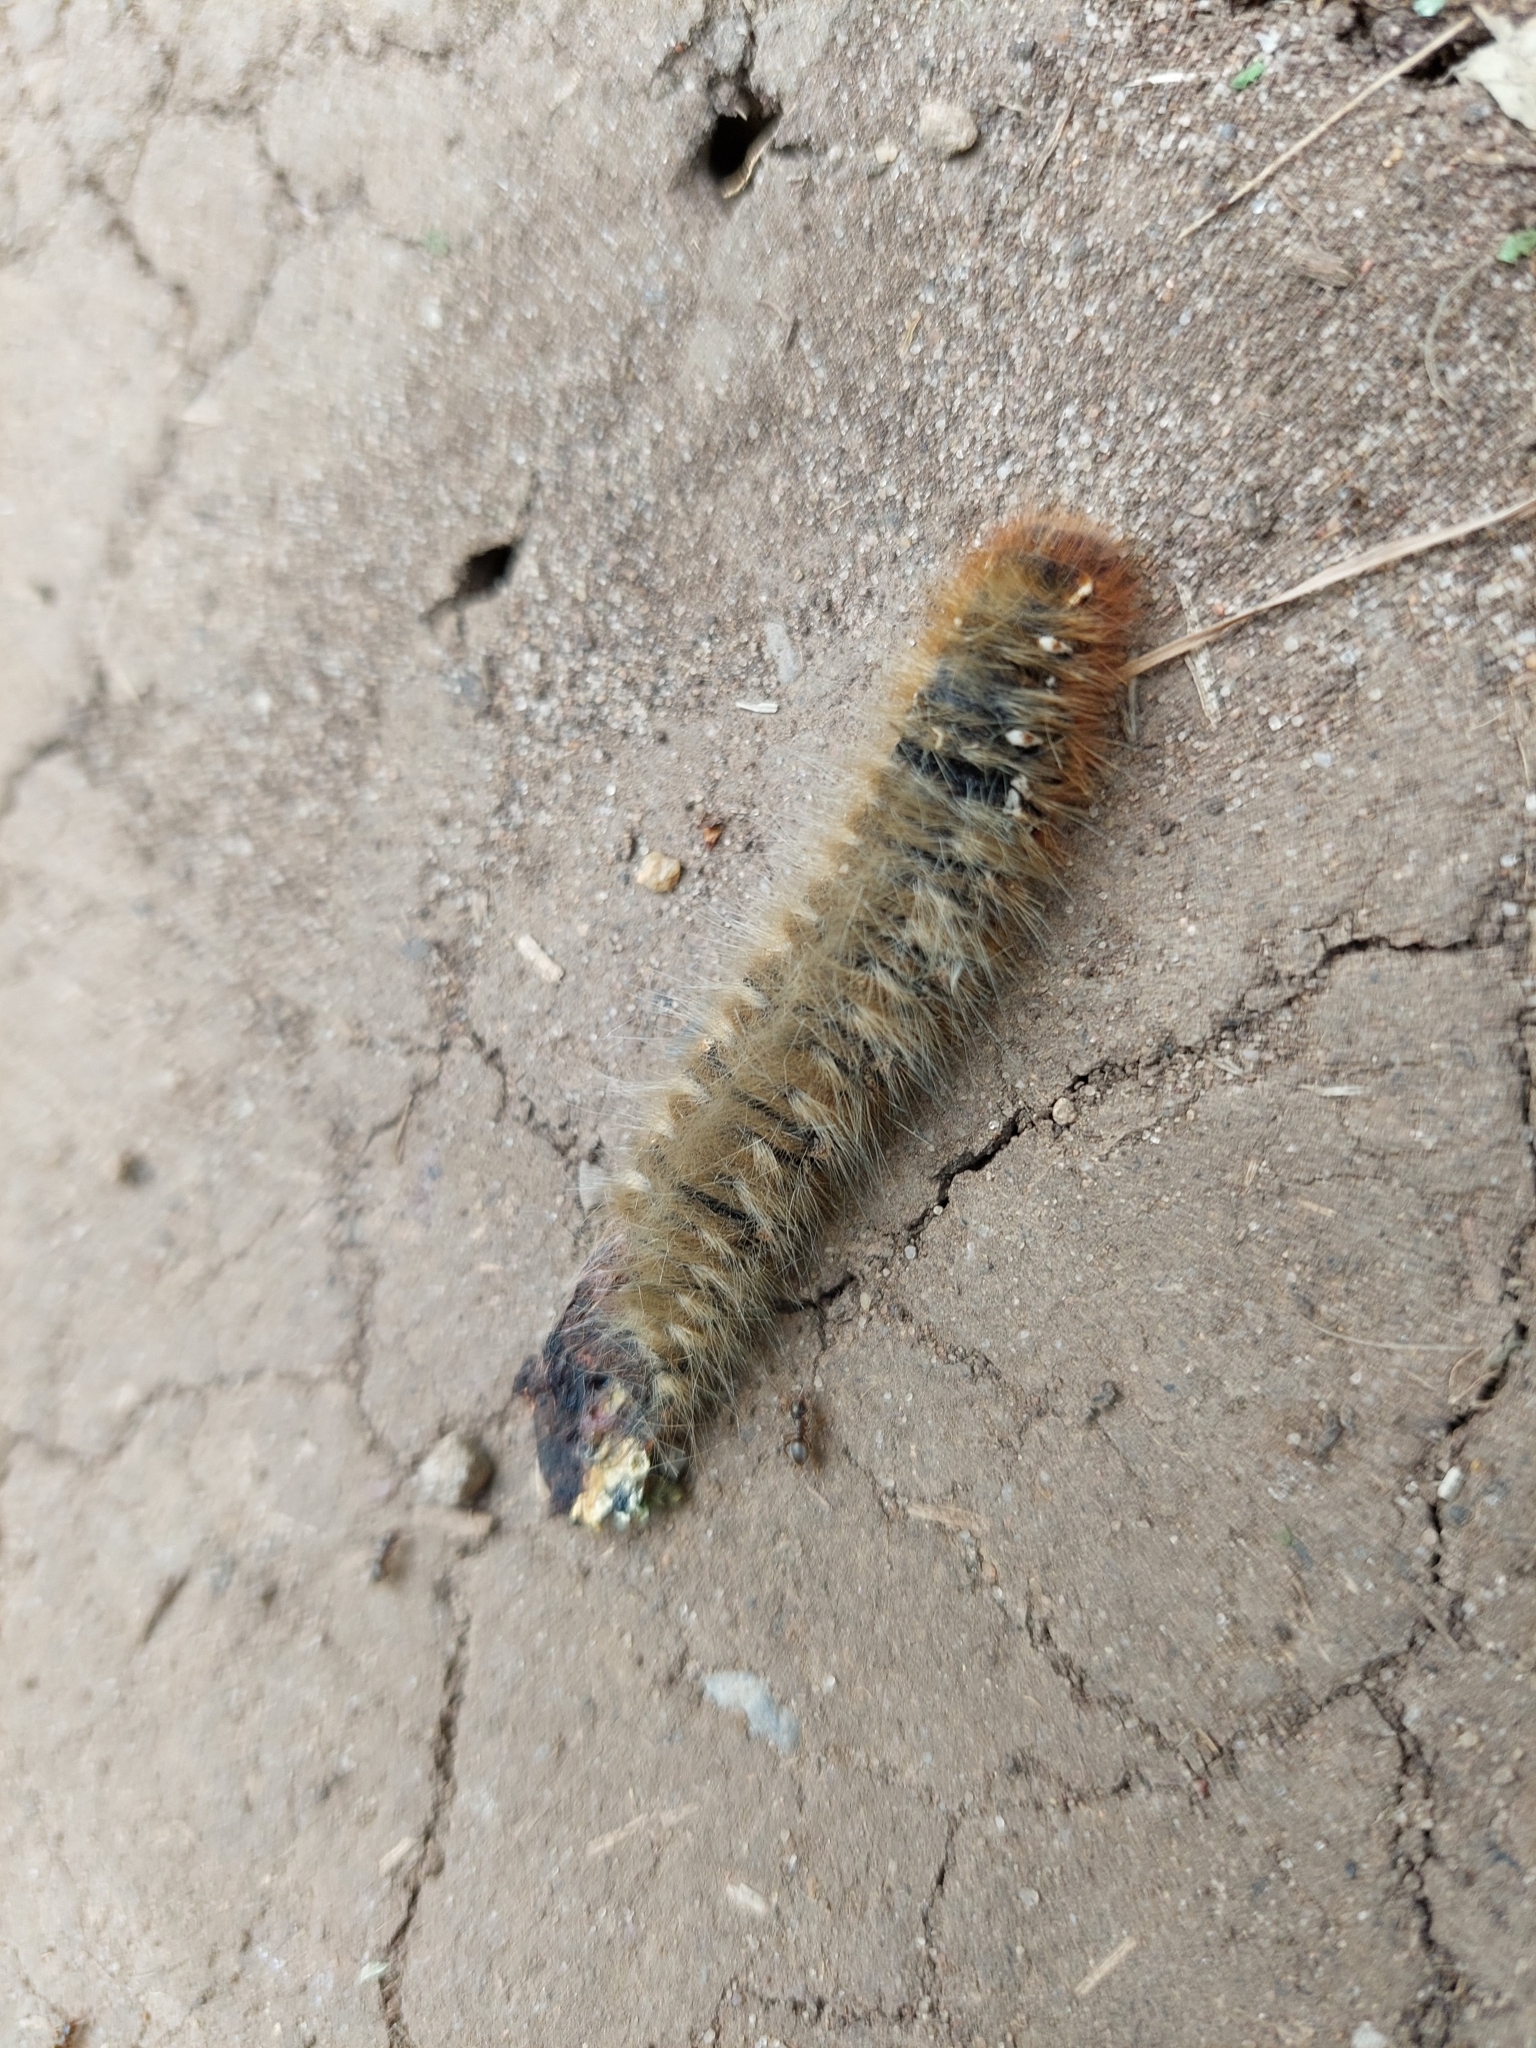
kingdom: Animalia
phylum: Arthropoda
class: Insecta
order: Lepidoptera
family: Lasiocampidae
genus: Lasiocampa
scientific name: Lasiocampa quercus
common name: Oak eggar
